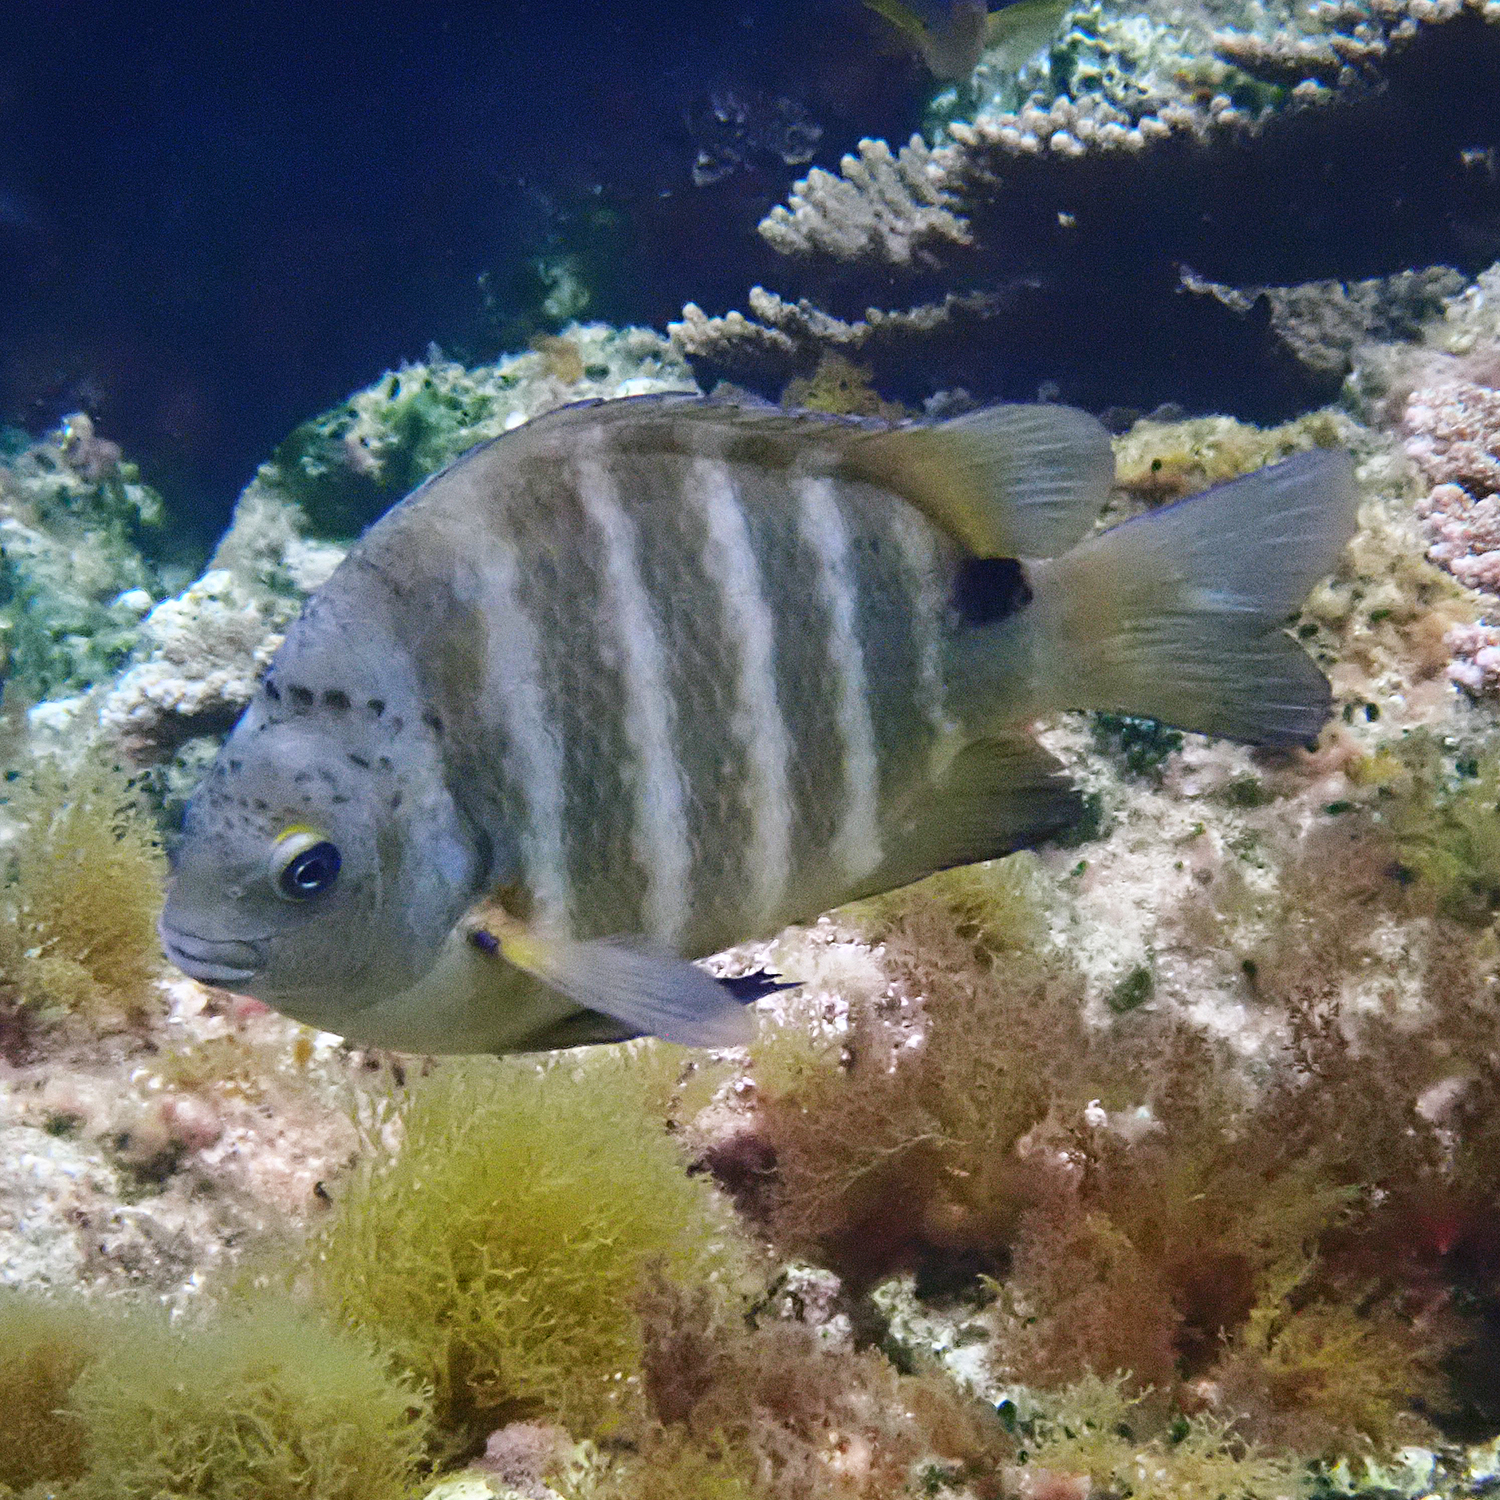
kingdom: Animalia
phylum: Chordata
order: Perciformes
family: Pomacentridae
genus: Abudefduf
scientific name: Abudefduf sordidus
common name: Blackspot sergeant
